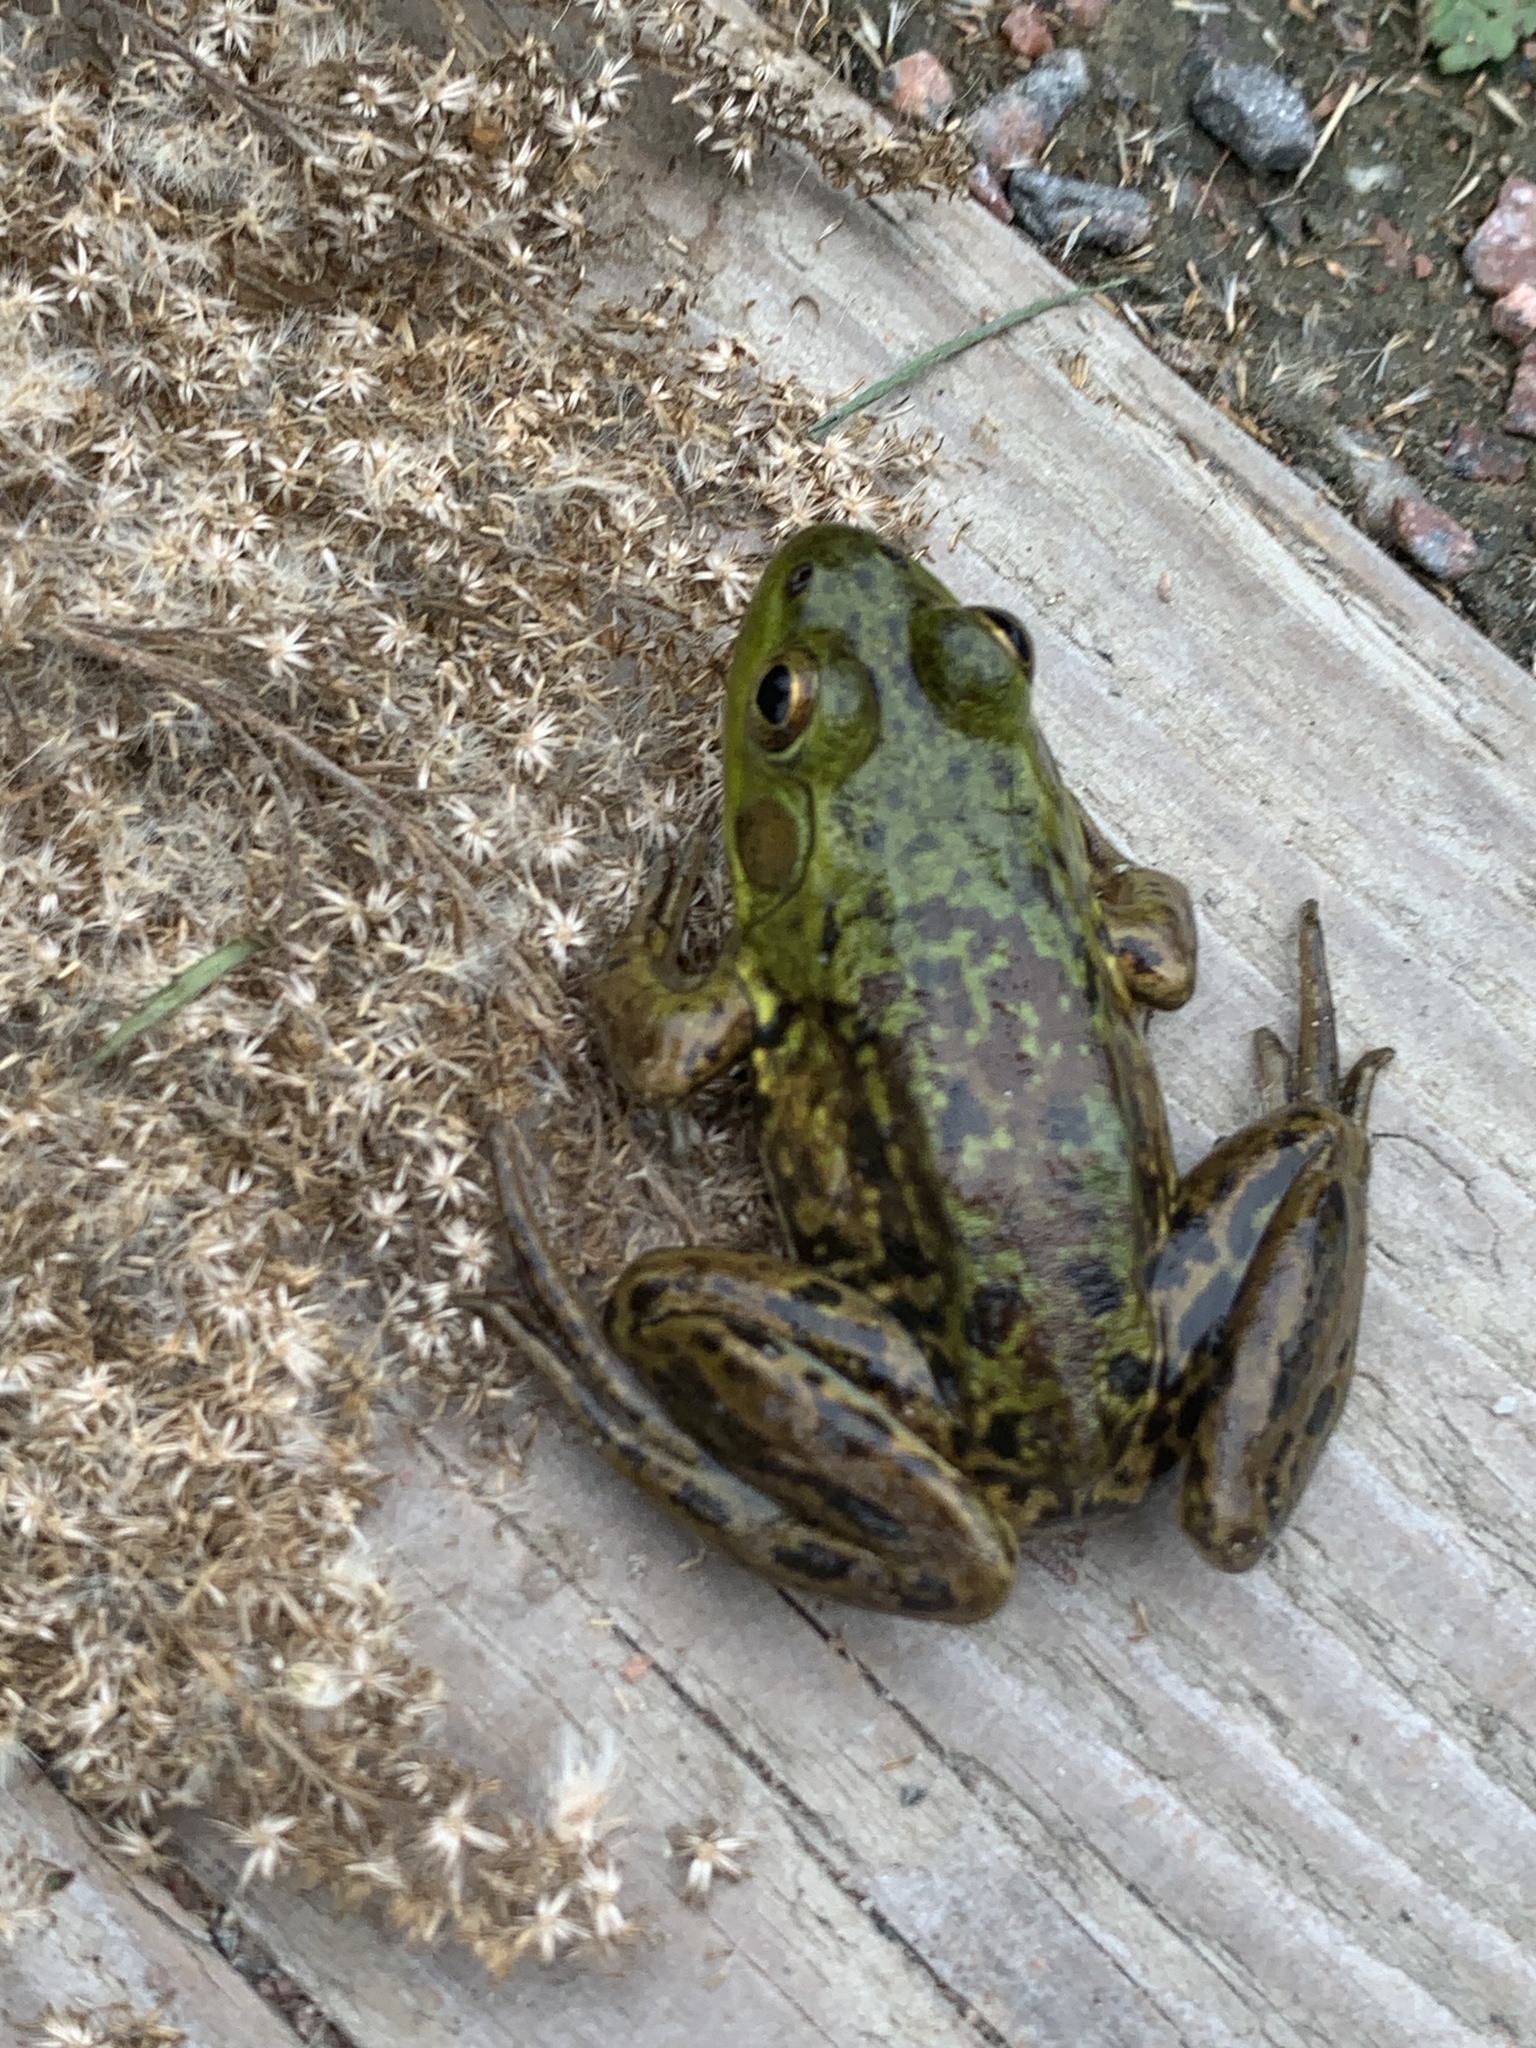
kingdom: Animalia
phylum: Chordata
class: Amphibia
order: Anura
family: Ranidae
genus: Lithobates
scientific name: Lithobates septentrionalis
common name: Mink frog
